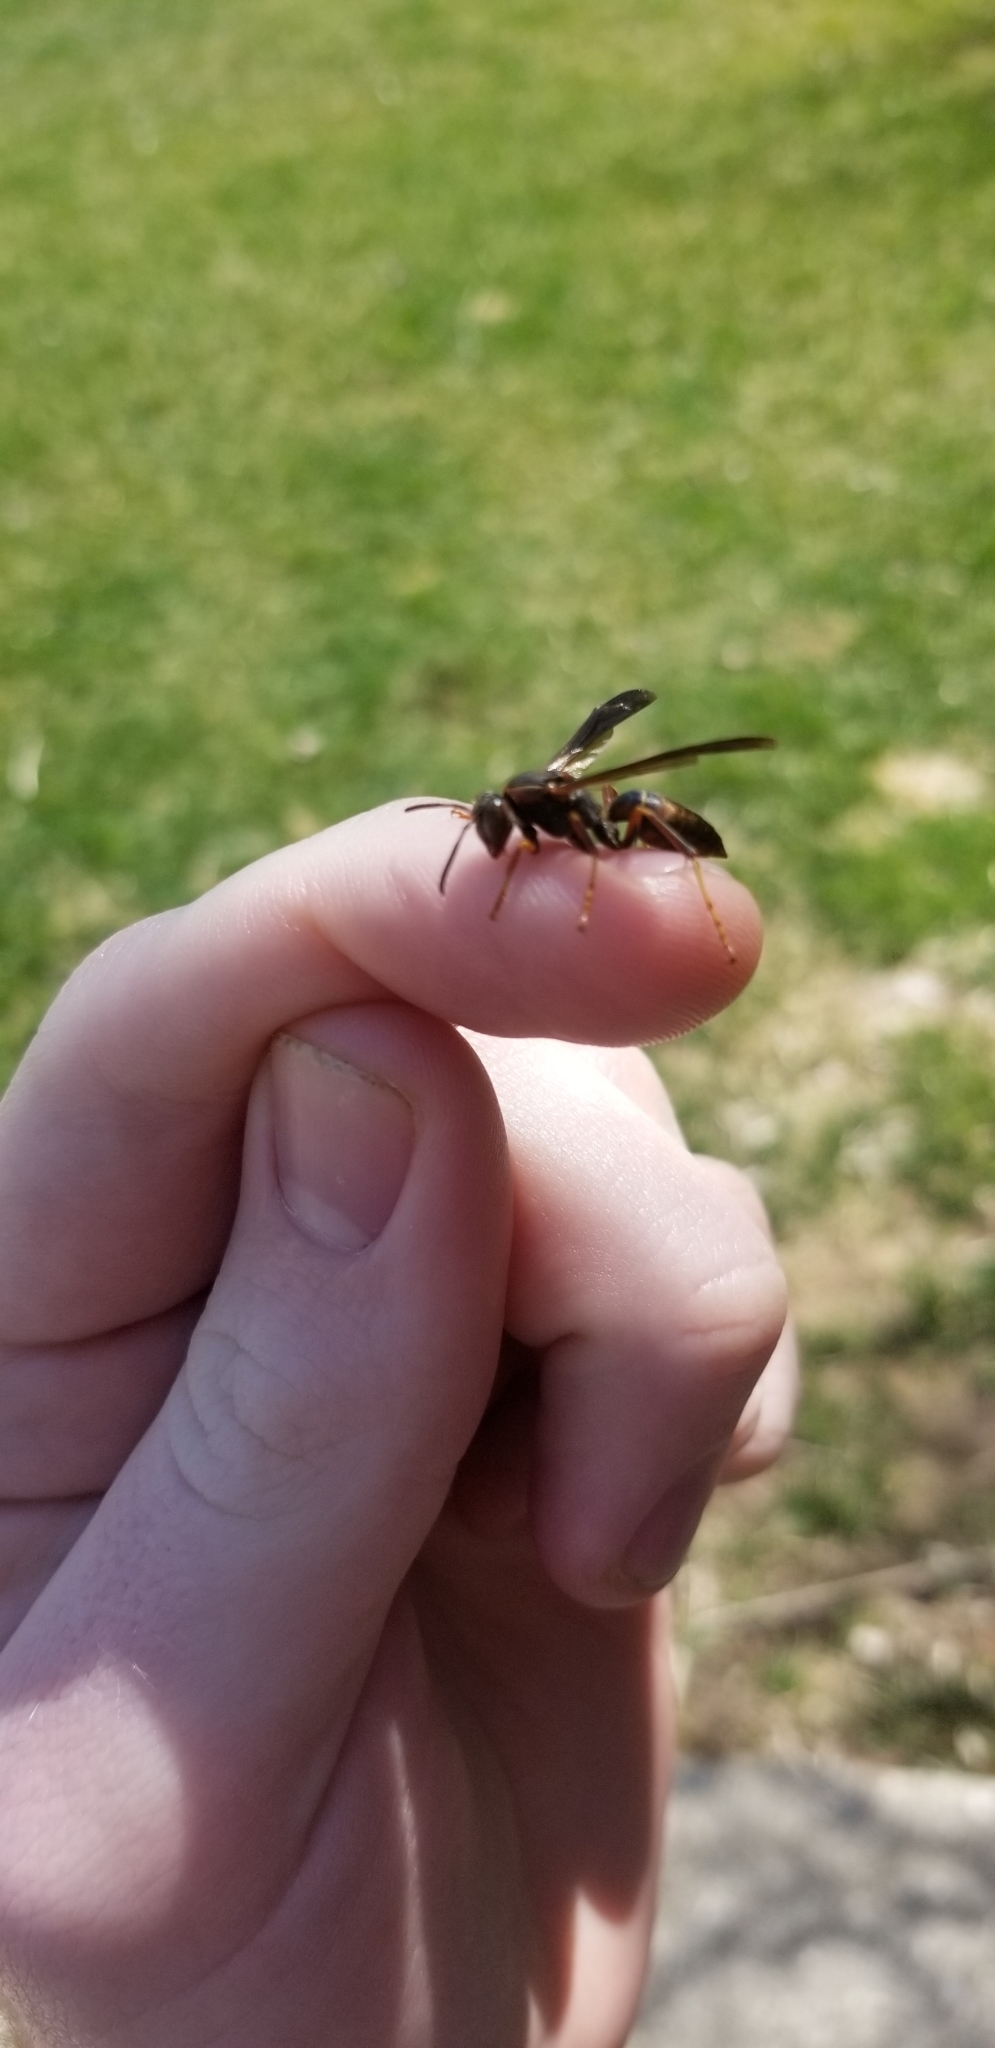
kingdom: Animalia
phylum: Arthropoda
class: Insecta
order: Hymenoptera
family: Eumenidae
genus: Polistes
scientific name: Polistes fuscatus
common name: Dark paper wasp
